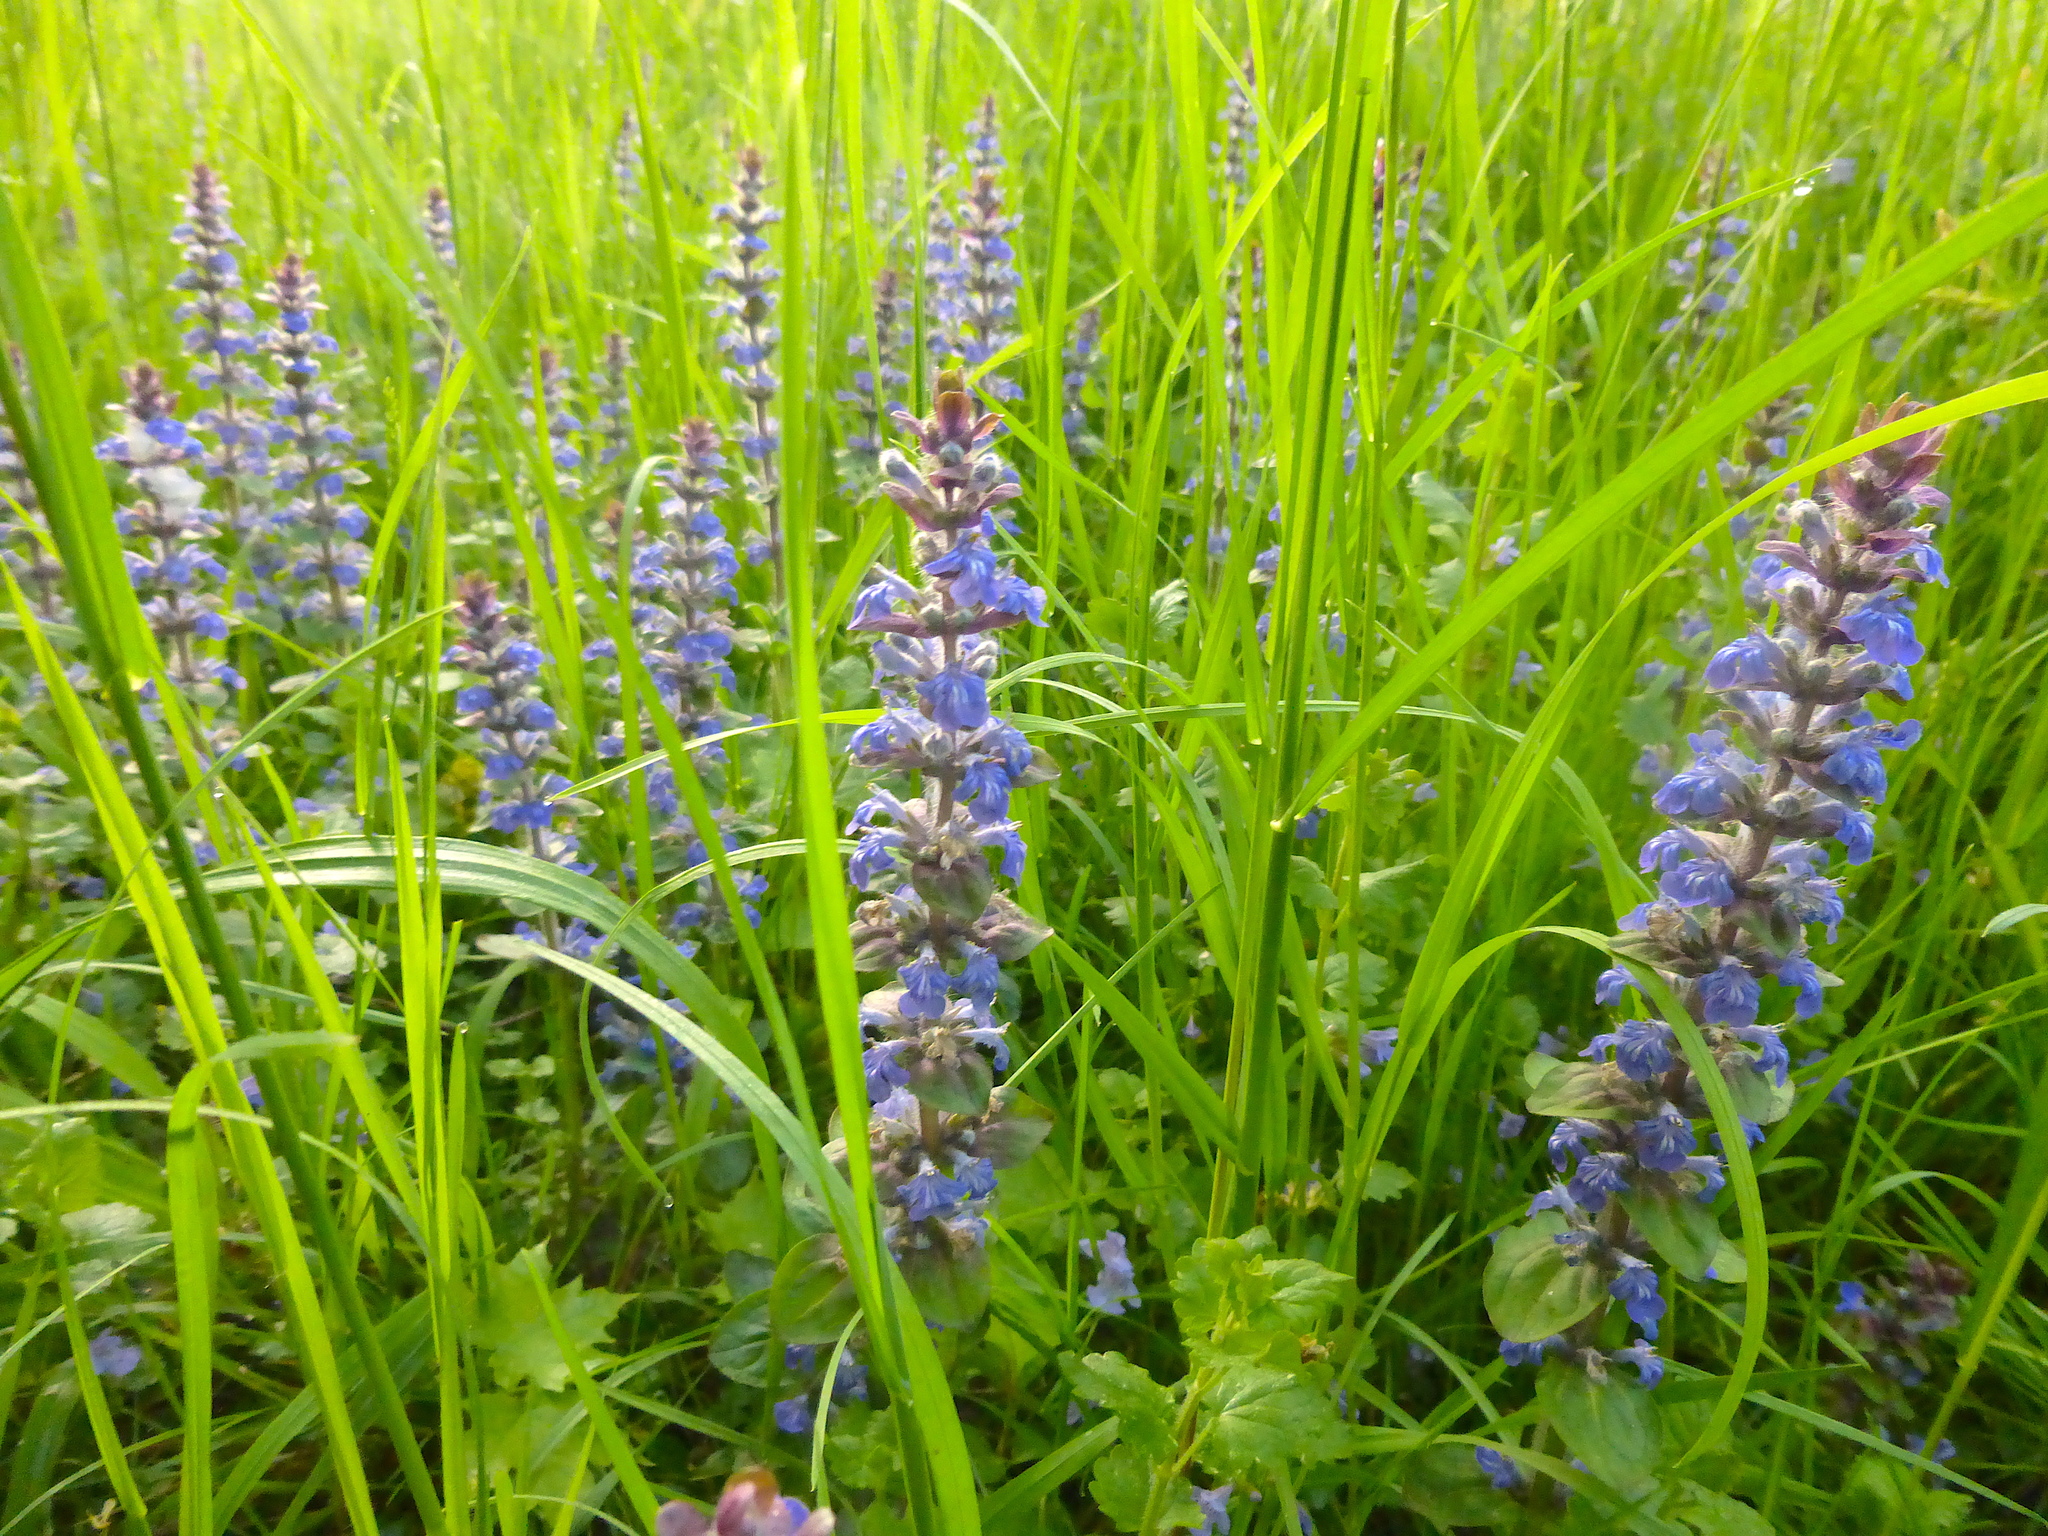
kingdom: Plantae
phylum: Tracheophyta
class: Magnoliopsida
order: Lamiales
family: Lamiaceae
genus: Ajuga
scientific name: Ajuga reptans
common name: Bugle
